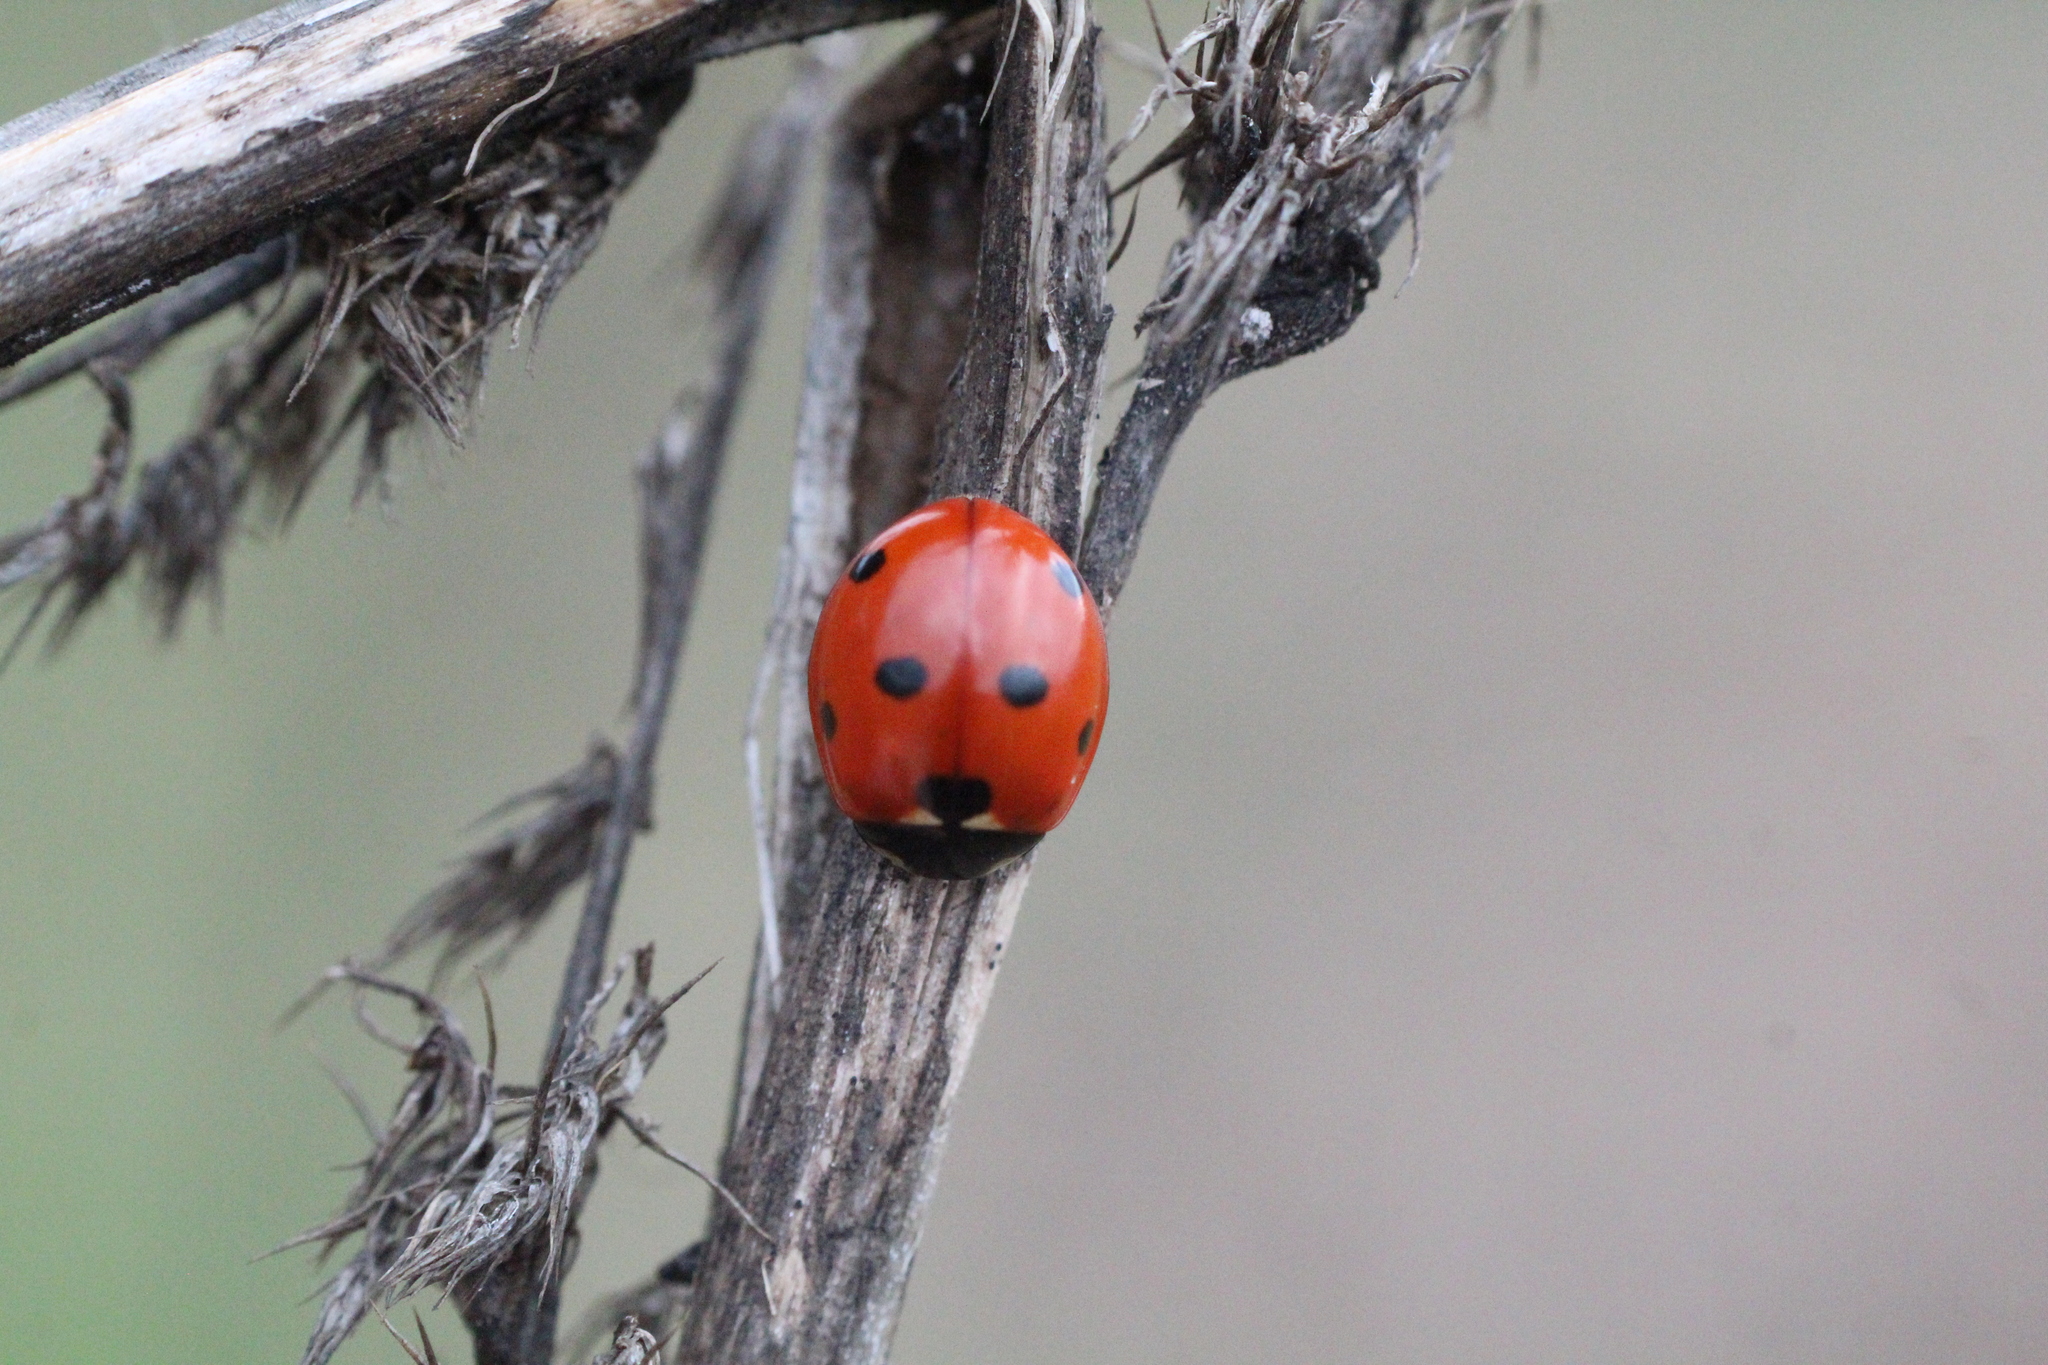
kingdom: Animalia
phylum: Arthropoda
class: Insecta
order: Coleoptera
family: Coccinellidae
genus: Coccinella
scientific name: Coccinella septempunctata
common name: Sevenspotted lady beetle
